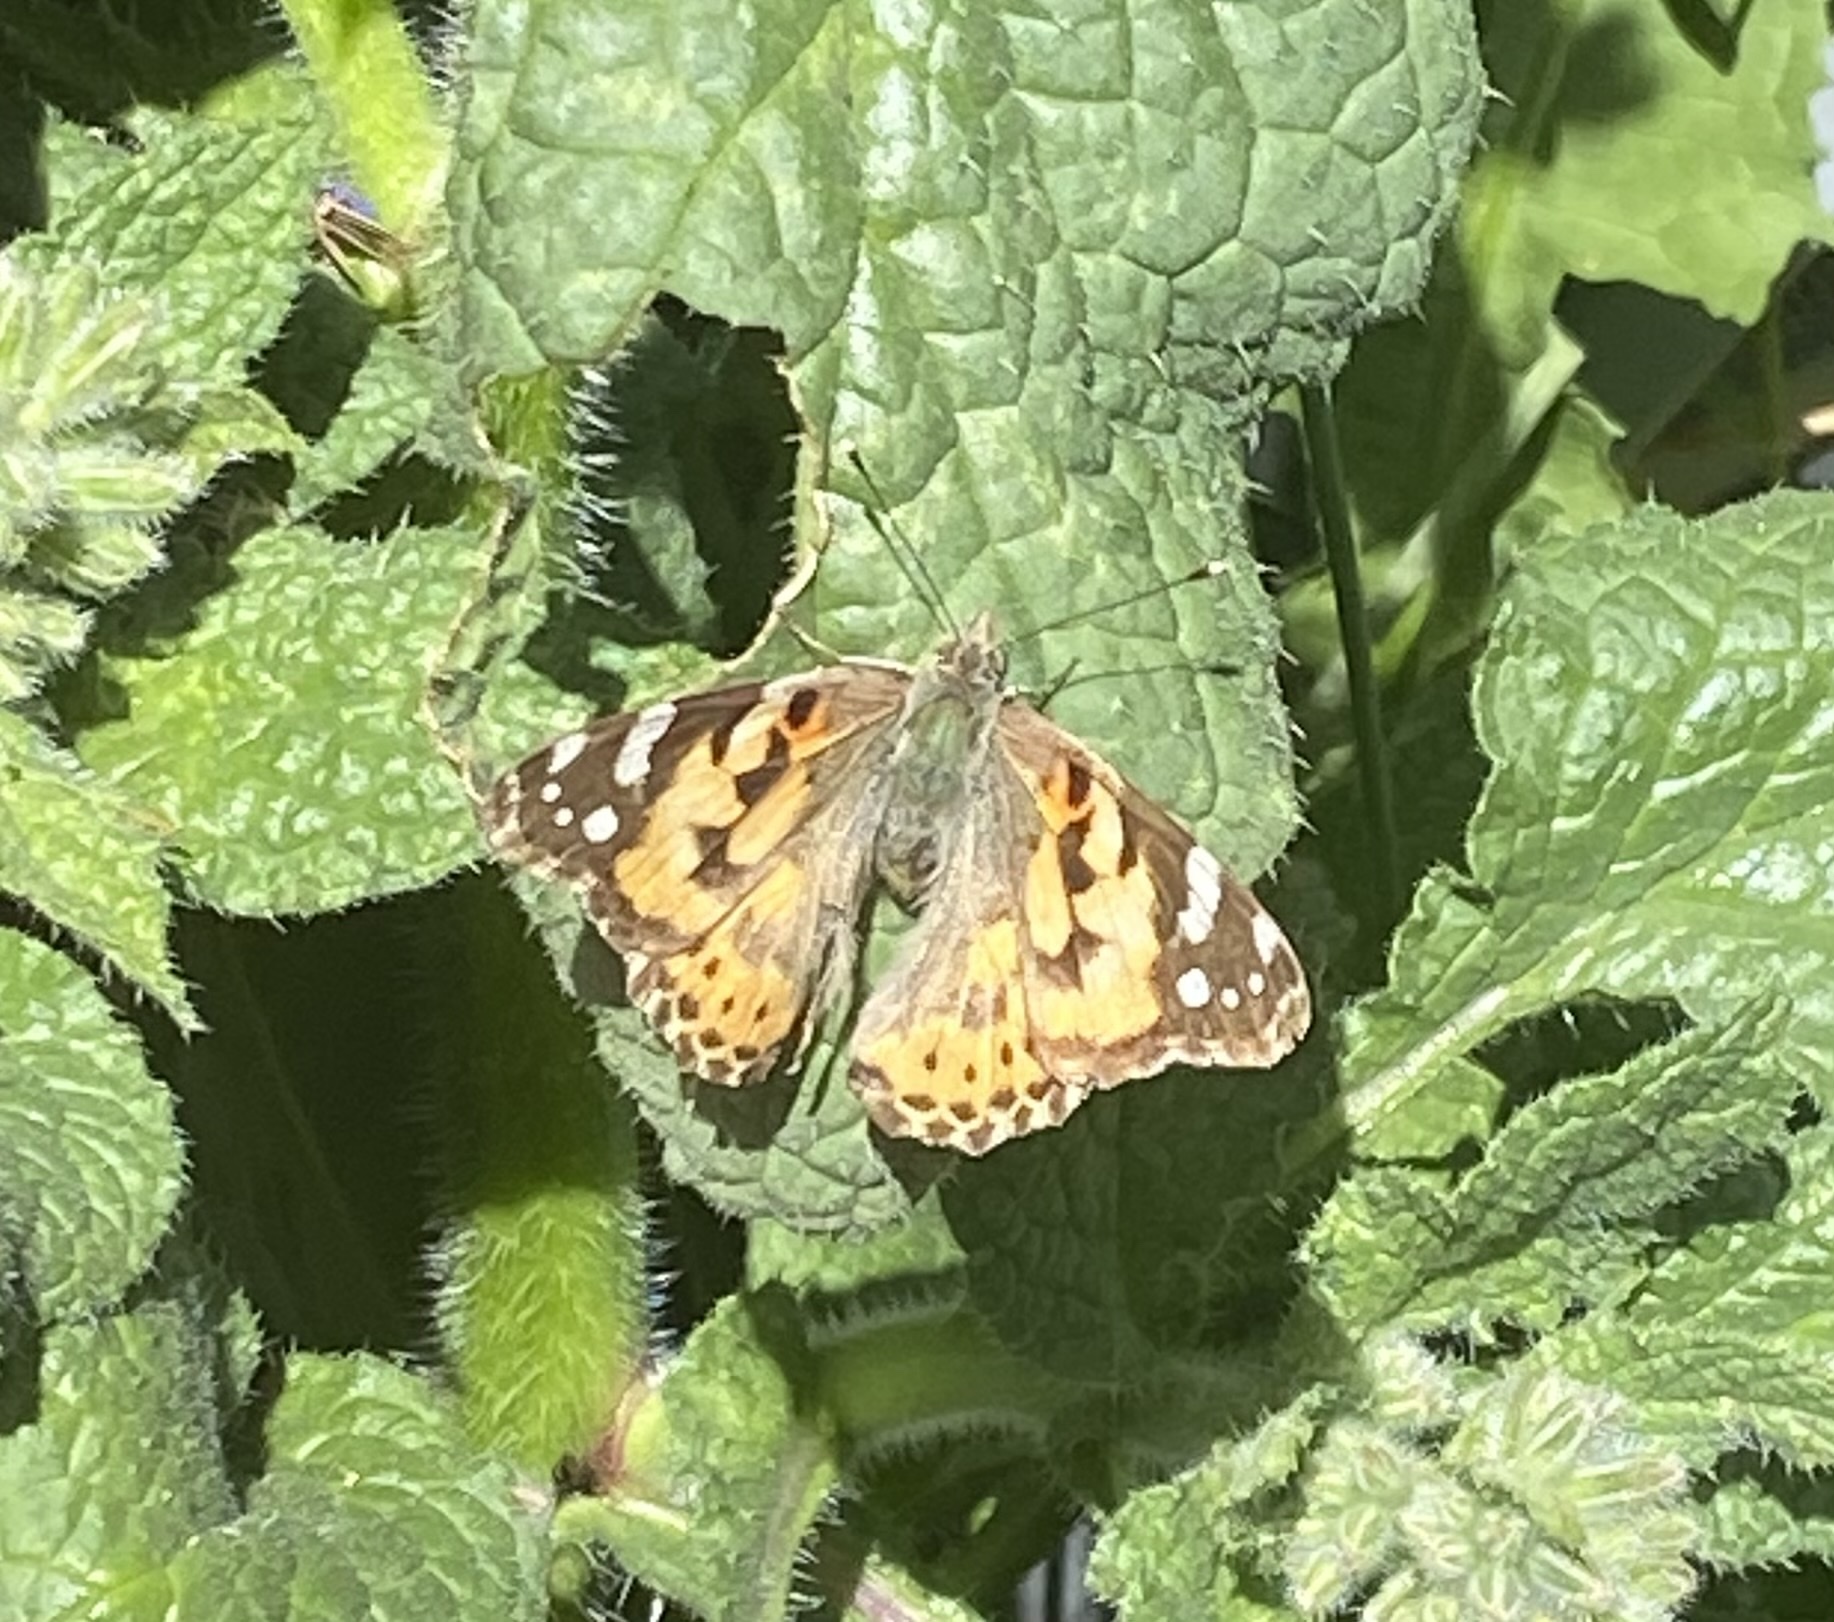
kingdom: Animalia
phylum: Arthropoda
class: Insecta
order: Lepidoptera
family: Nymphalidae
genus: Vanessa
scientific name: Vanessa cardui
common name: Painted lady
